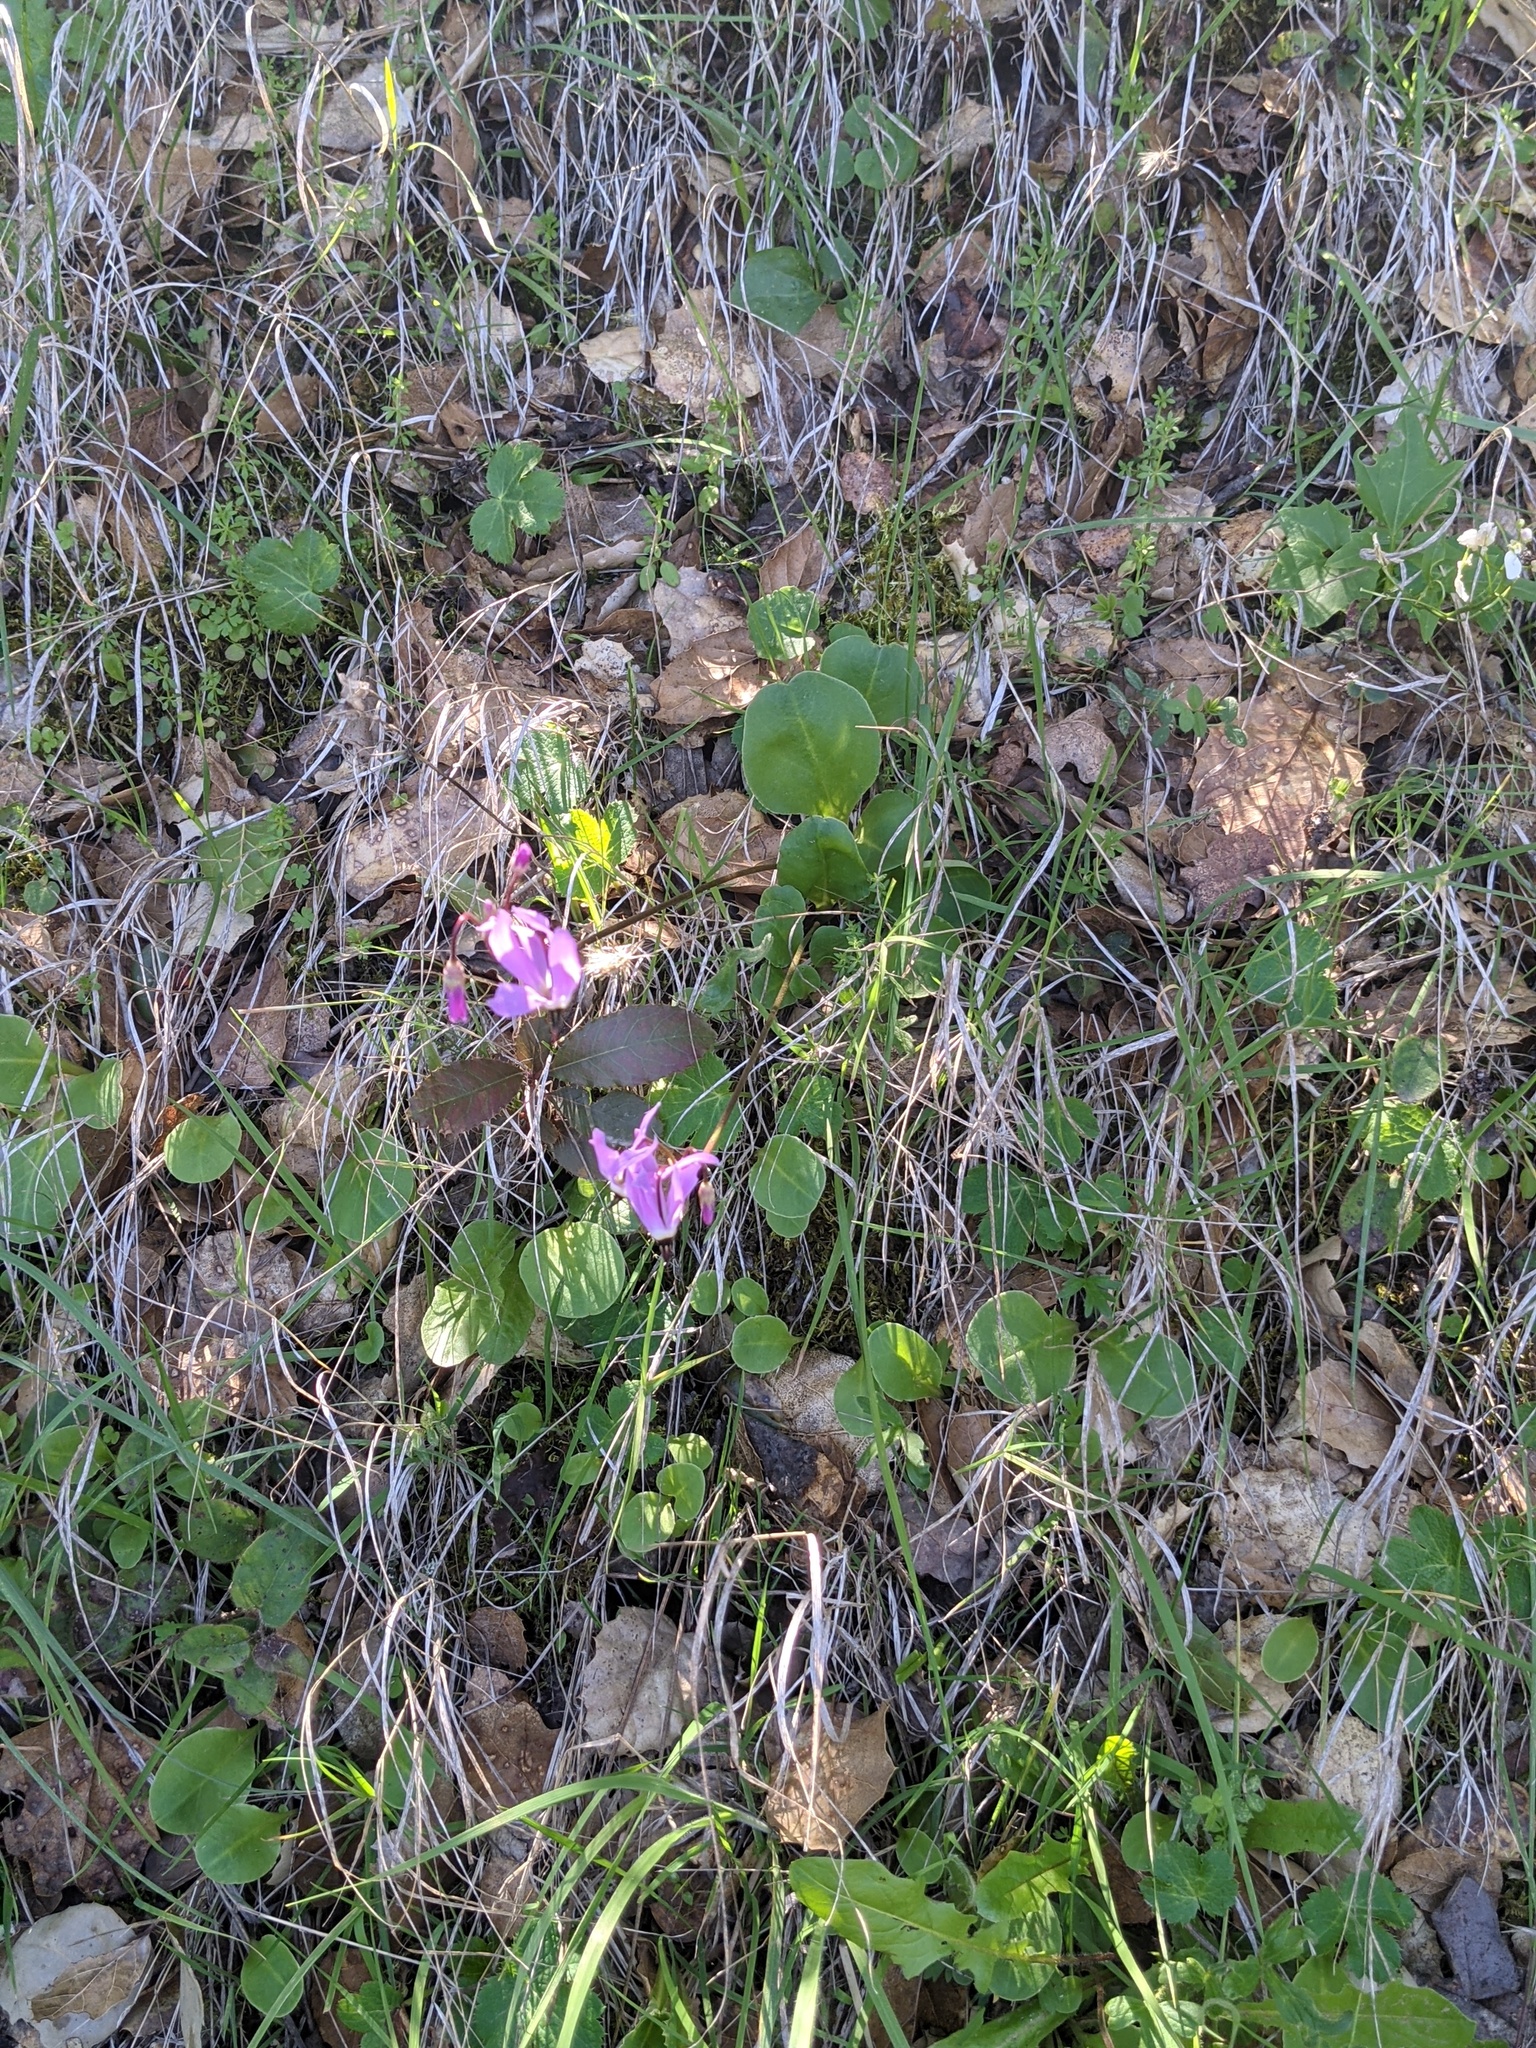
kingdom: Plantae
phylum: Tracheophyta
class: Magnoliopsida
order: Ericales
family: Primulaceae
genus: Dodecatheon
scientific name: Dodecatheon hendersonii
